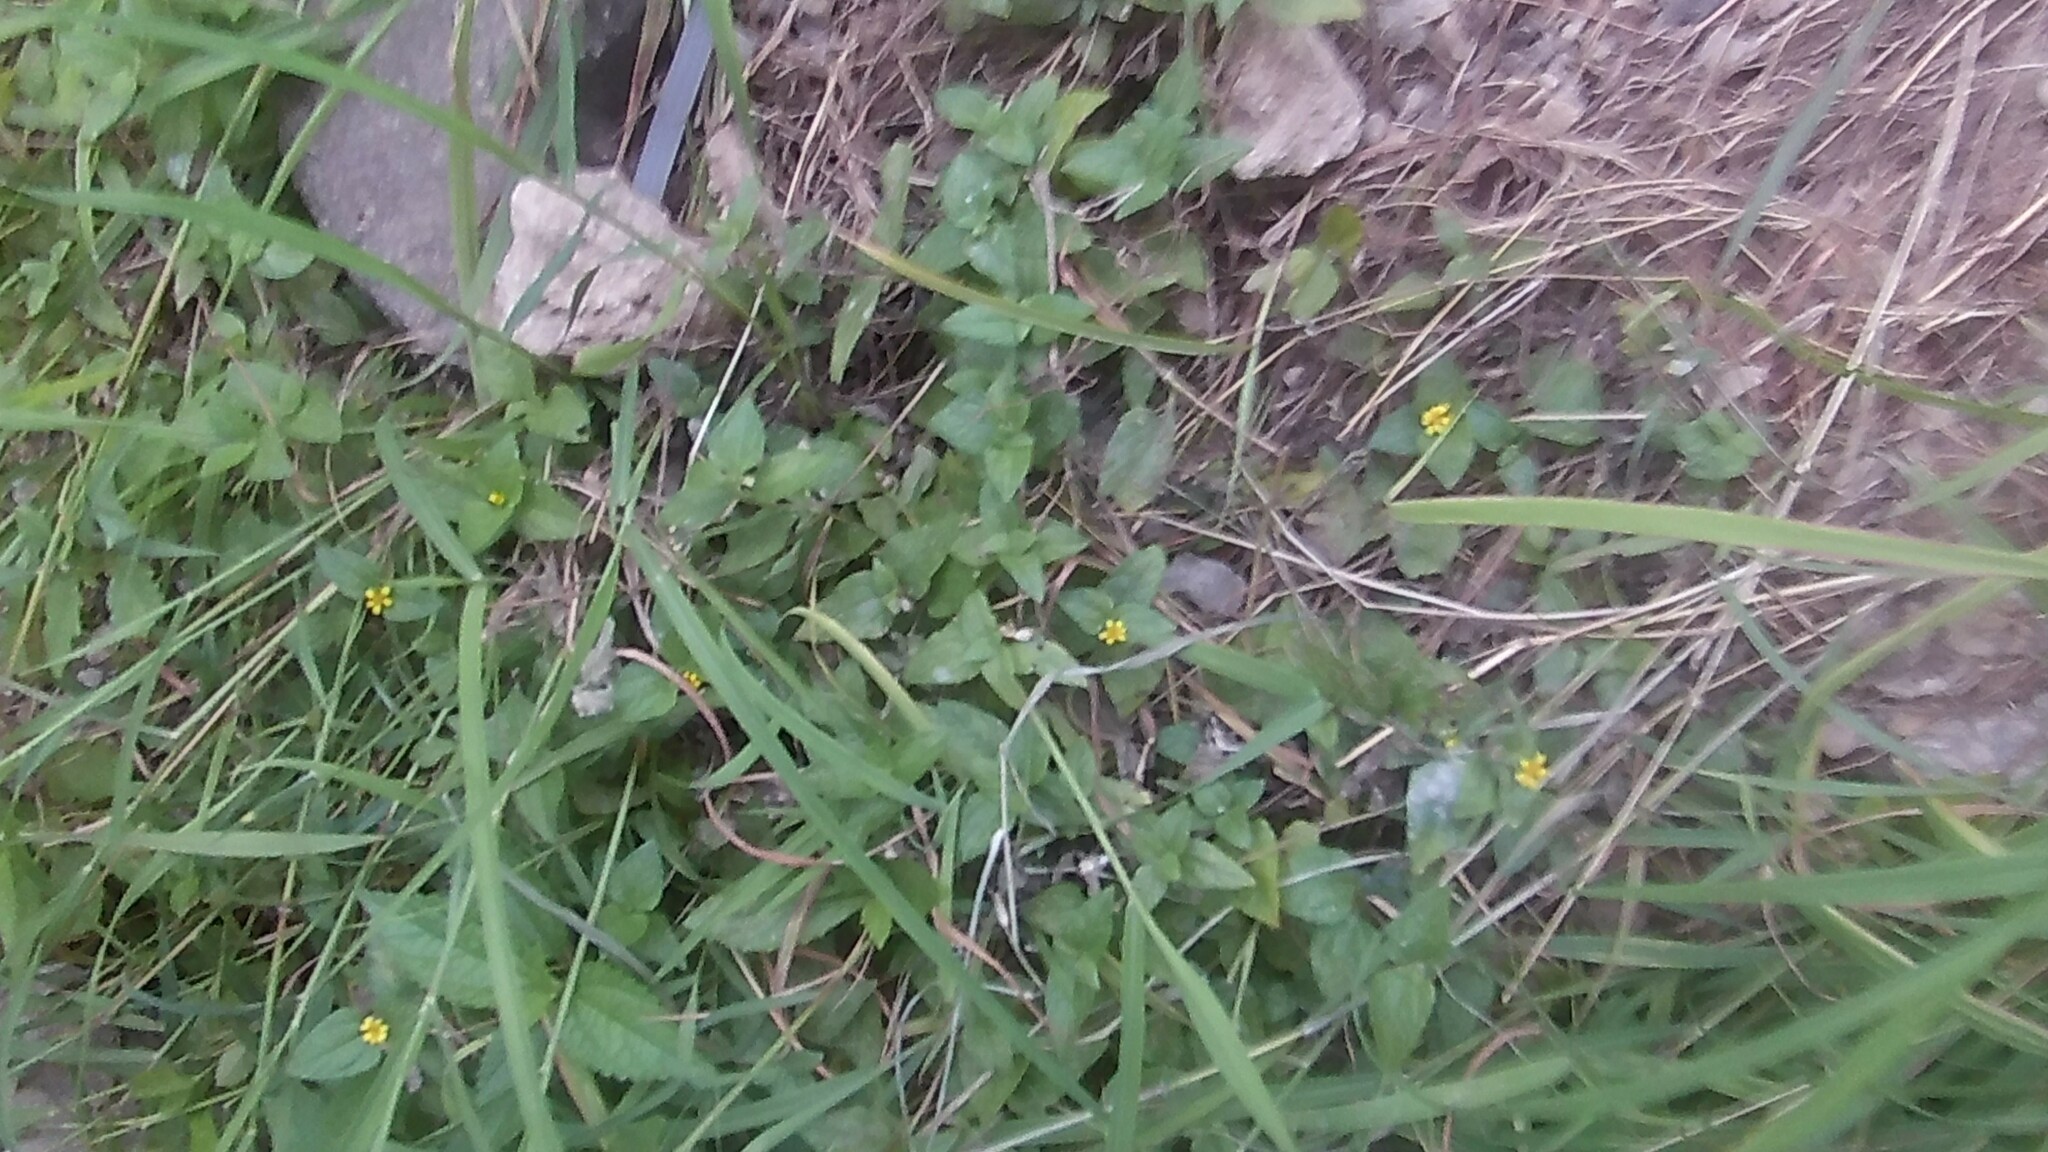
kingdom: Plantae
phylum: Tracheophyta
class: Magnoliopsida
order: Asterales
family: Asteraceae
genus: Calyptocarpus
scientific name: Calyptocarpus vialis
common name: Straggler daisy
